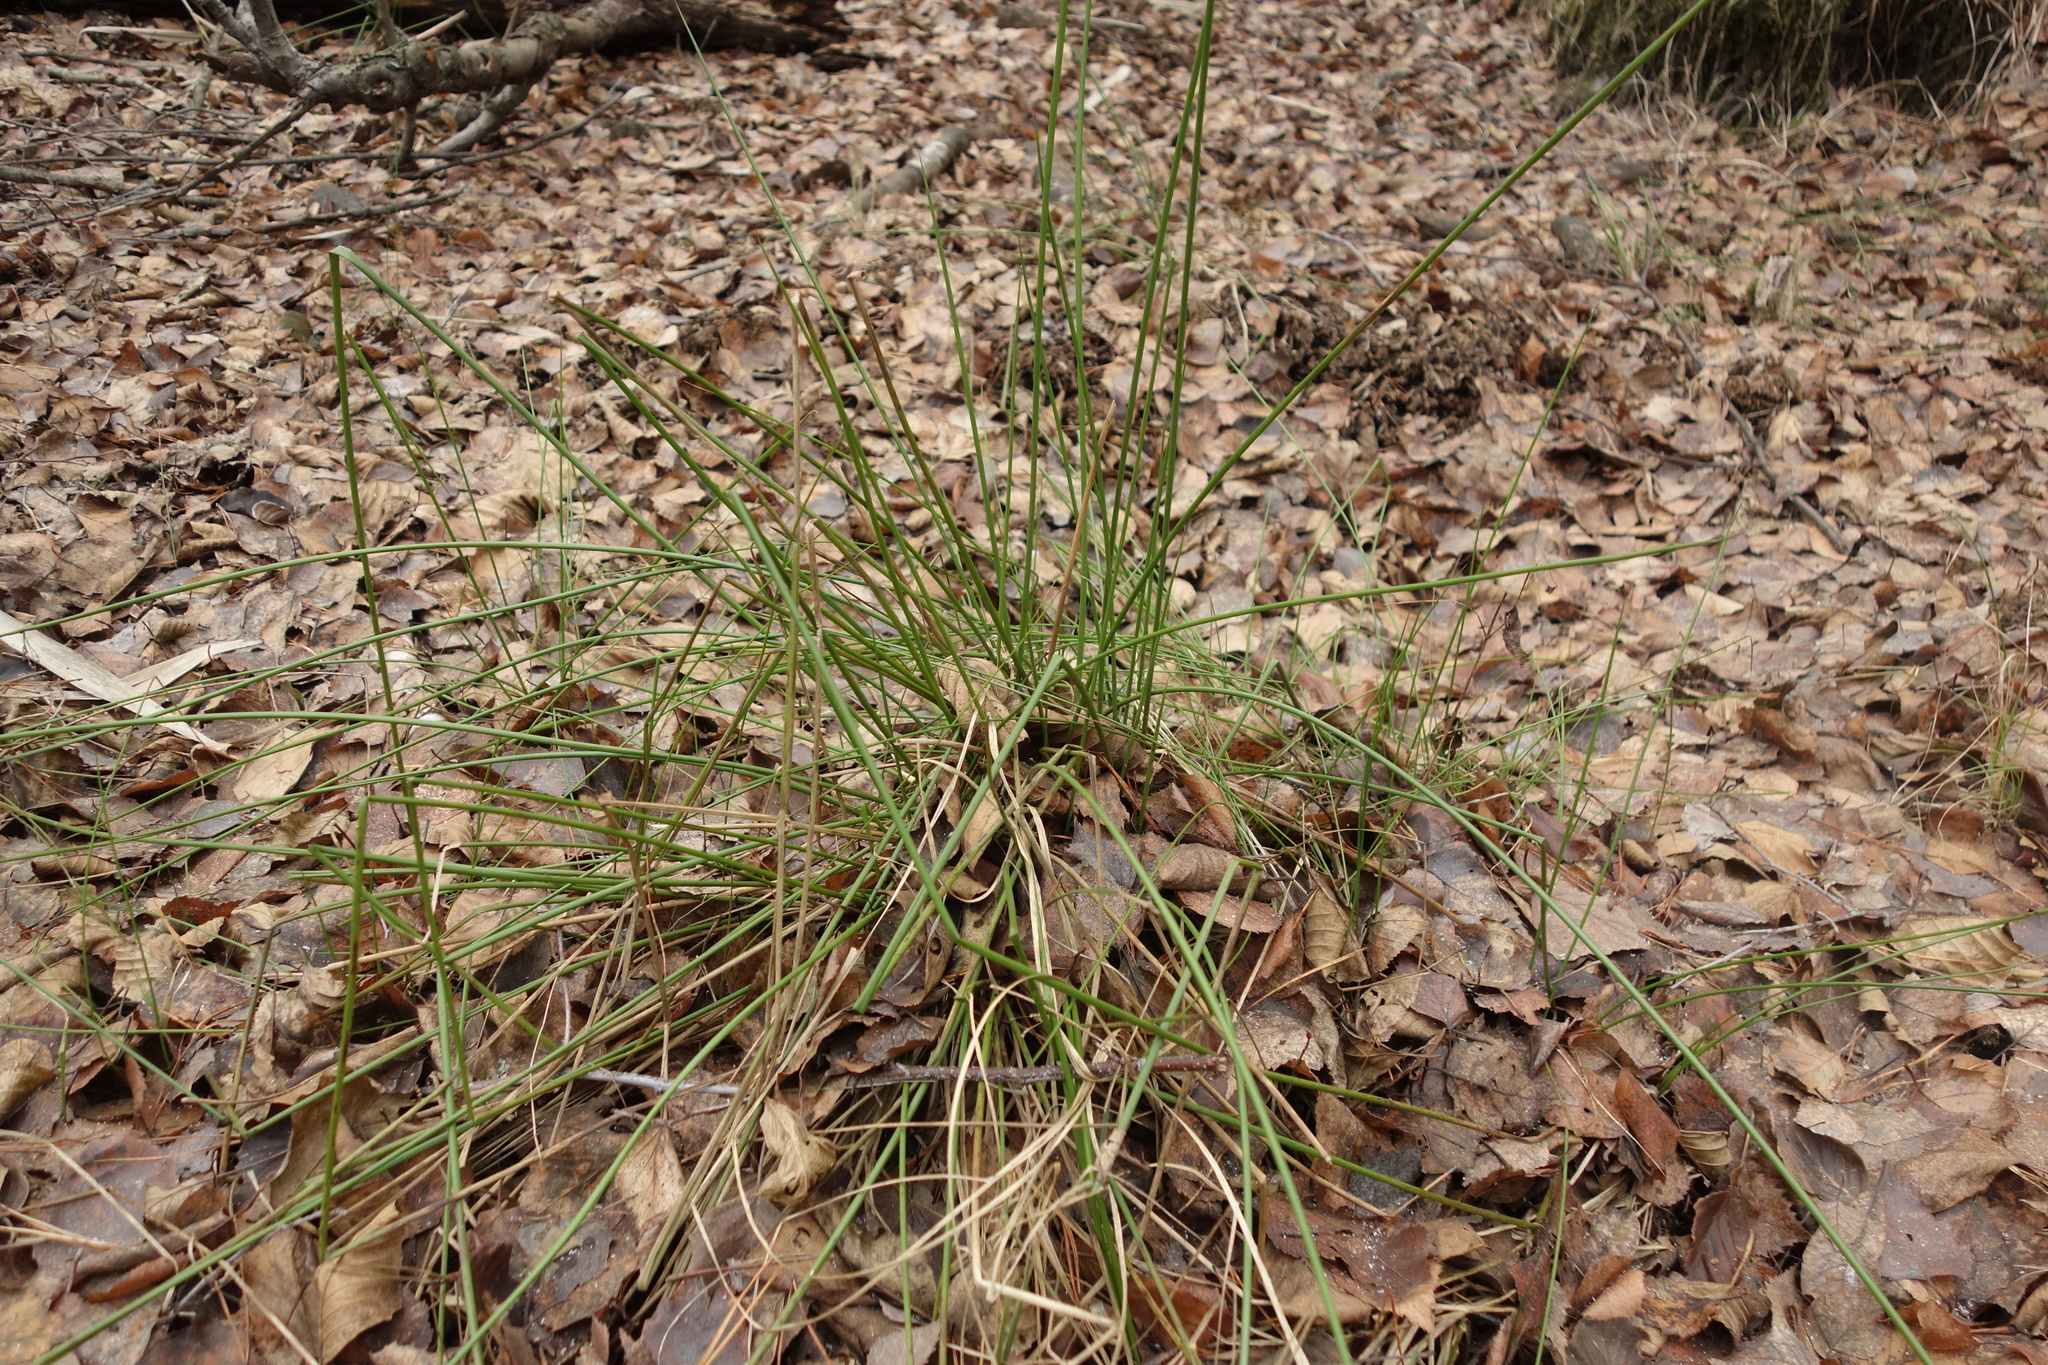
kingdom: Plantae
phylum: Tracheophyta
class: Liliopsida
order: Poales
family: Juncaceae
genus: Juncus
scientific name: Juncus effusus
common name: Soft rush
